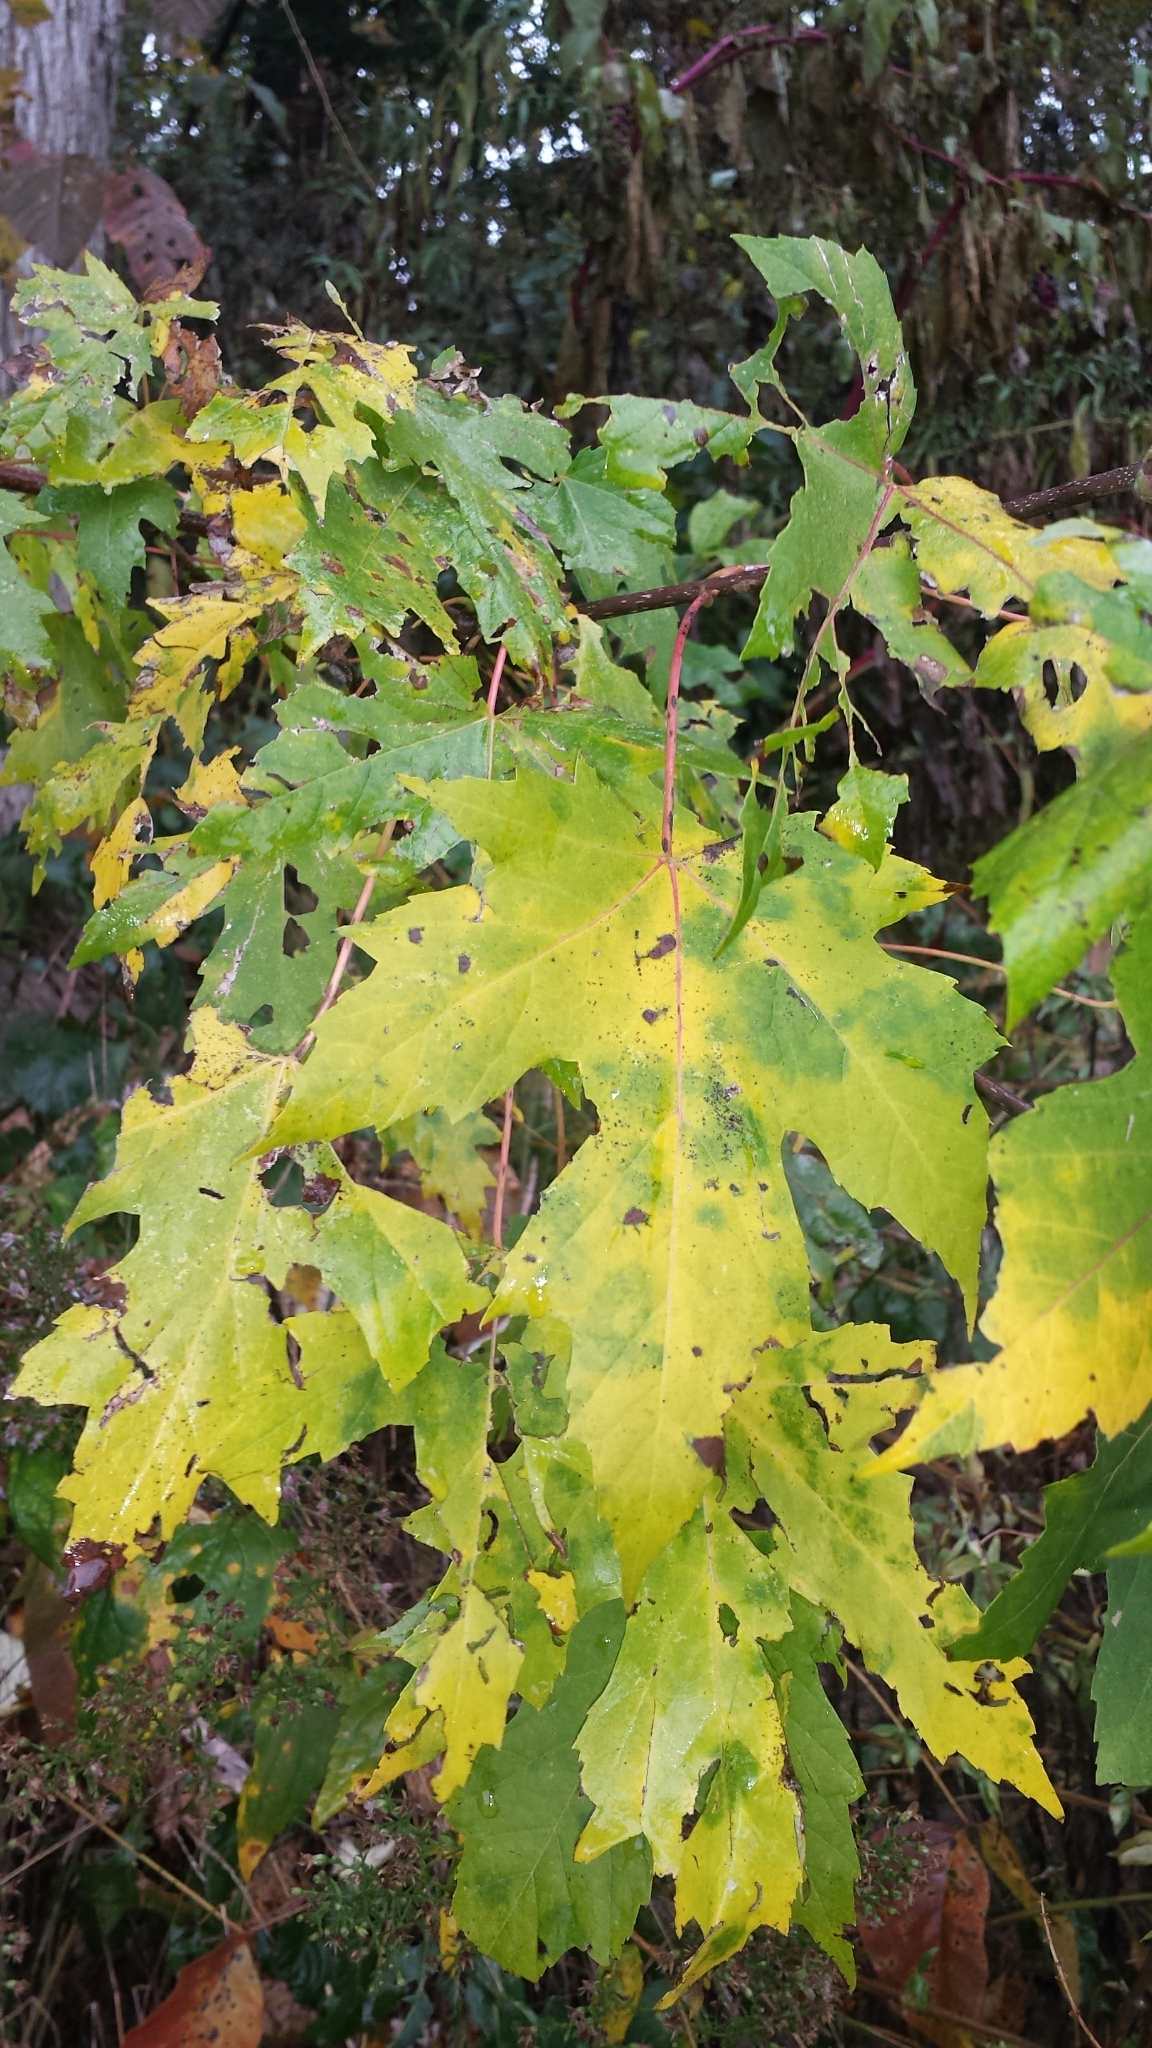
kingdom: Plantae
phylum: Tracheophyta
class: Magnoliopsida
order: Sapindales
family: Sapindaceae
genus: Acer
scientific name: Acer saccharinum
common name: Silver maple
